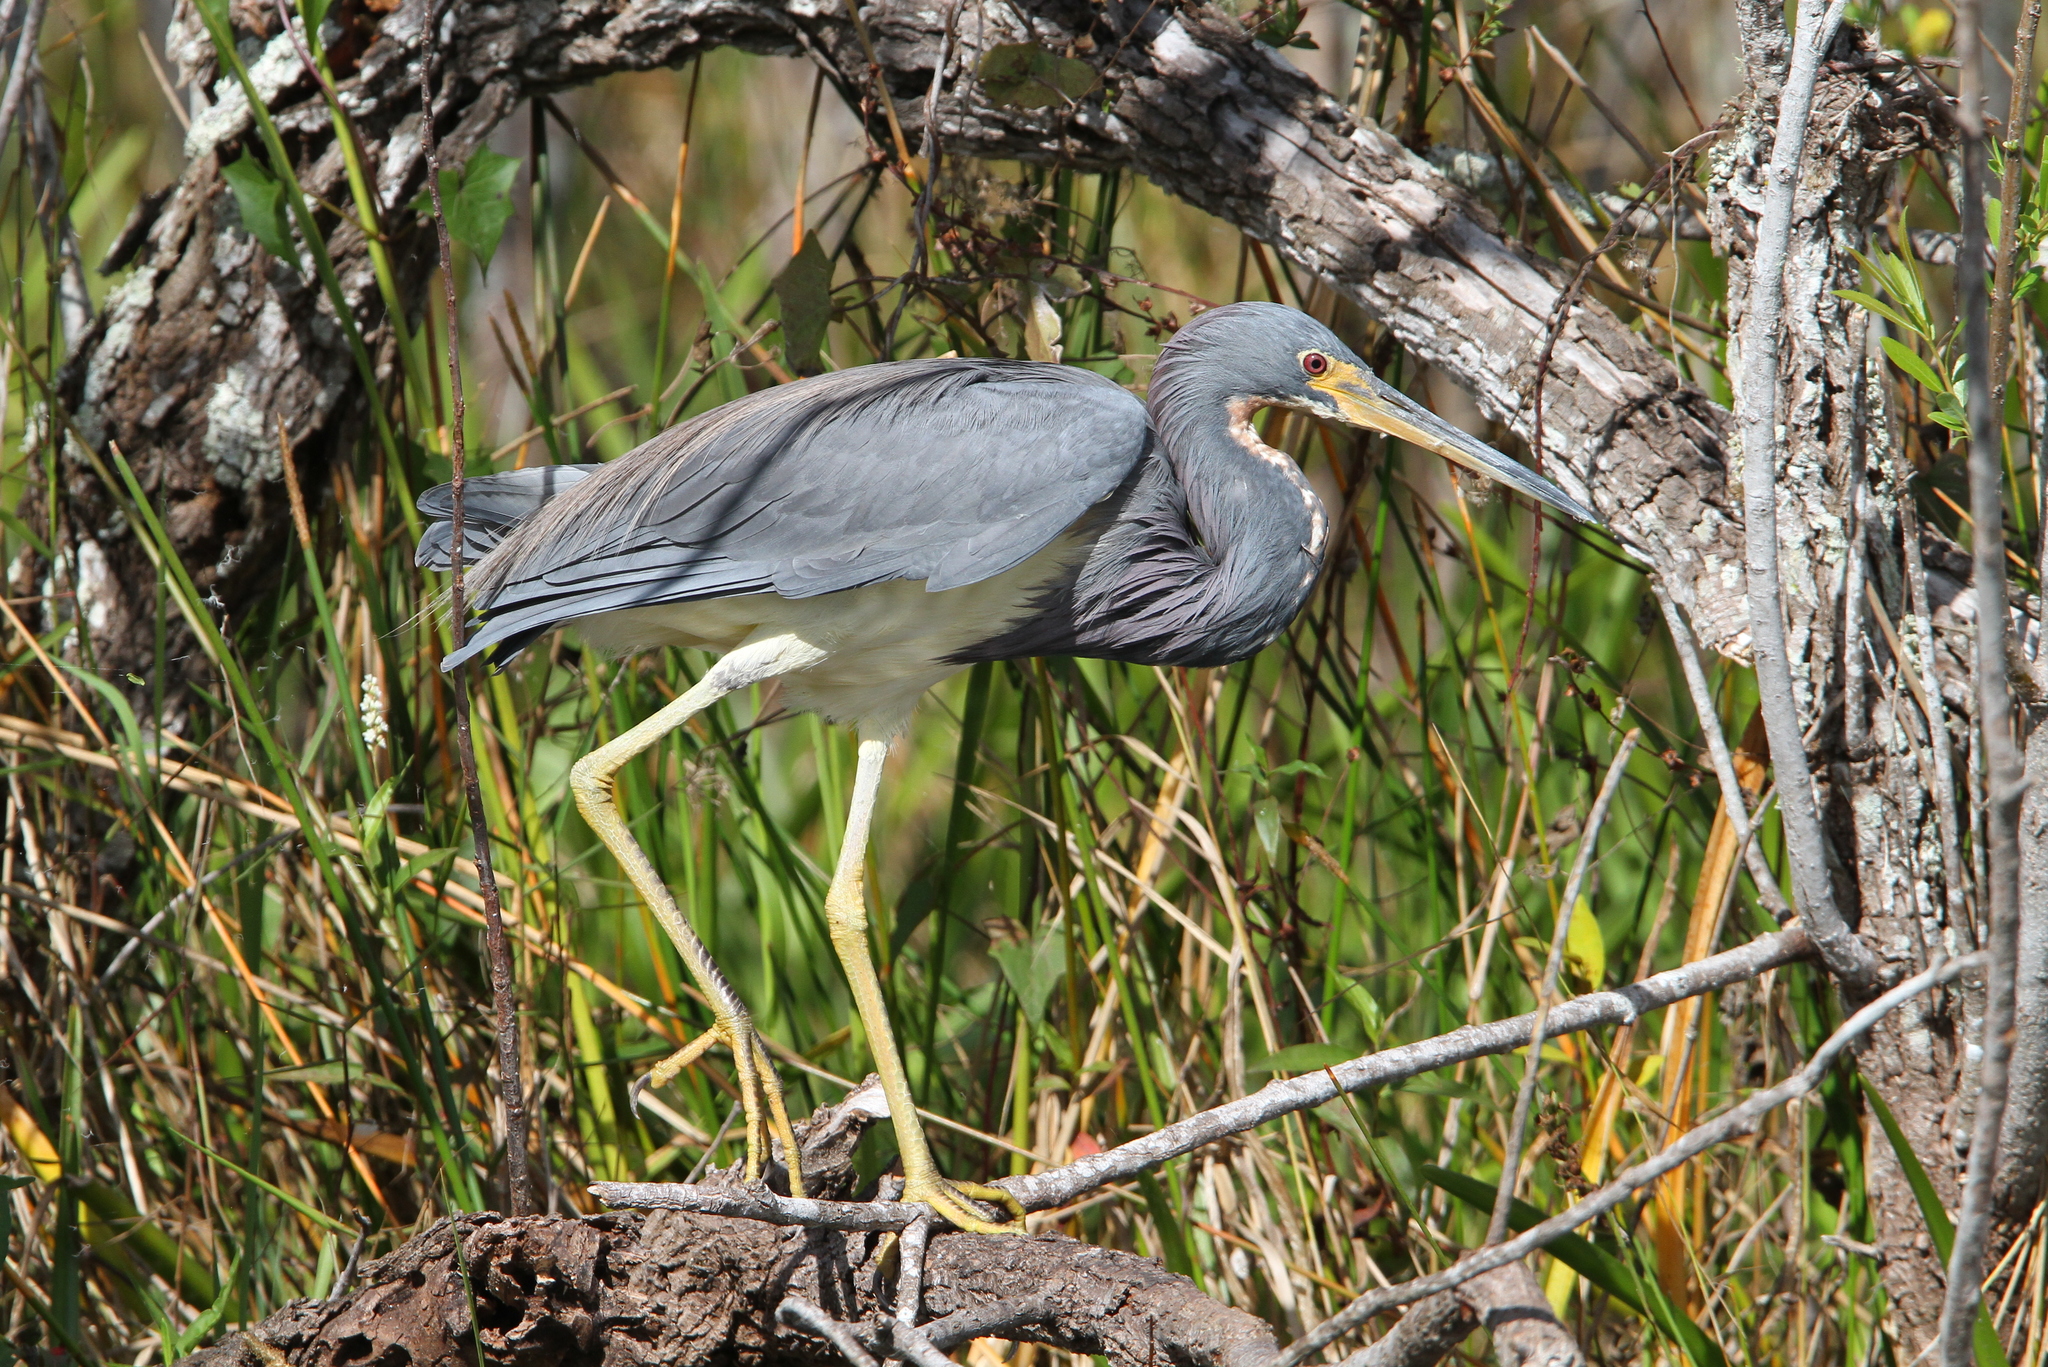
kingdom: Animalia
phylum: Chordata
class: Aves
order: Pelecaniformes
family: Ardeidae
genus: Egretta
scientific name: Egretta tricolor
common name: Tricolored heron
